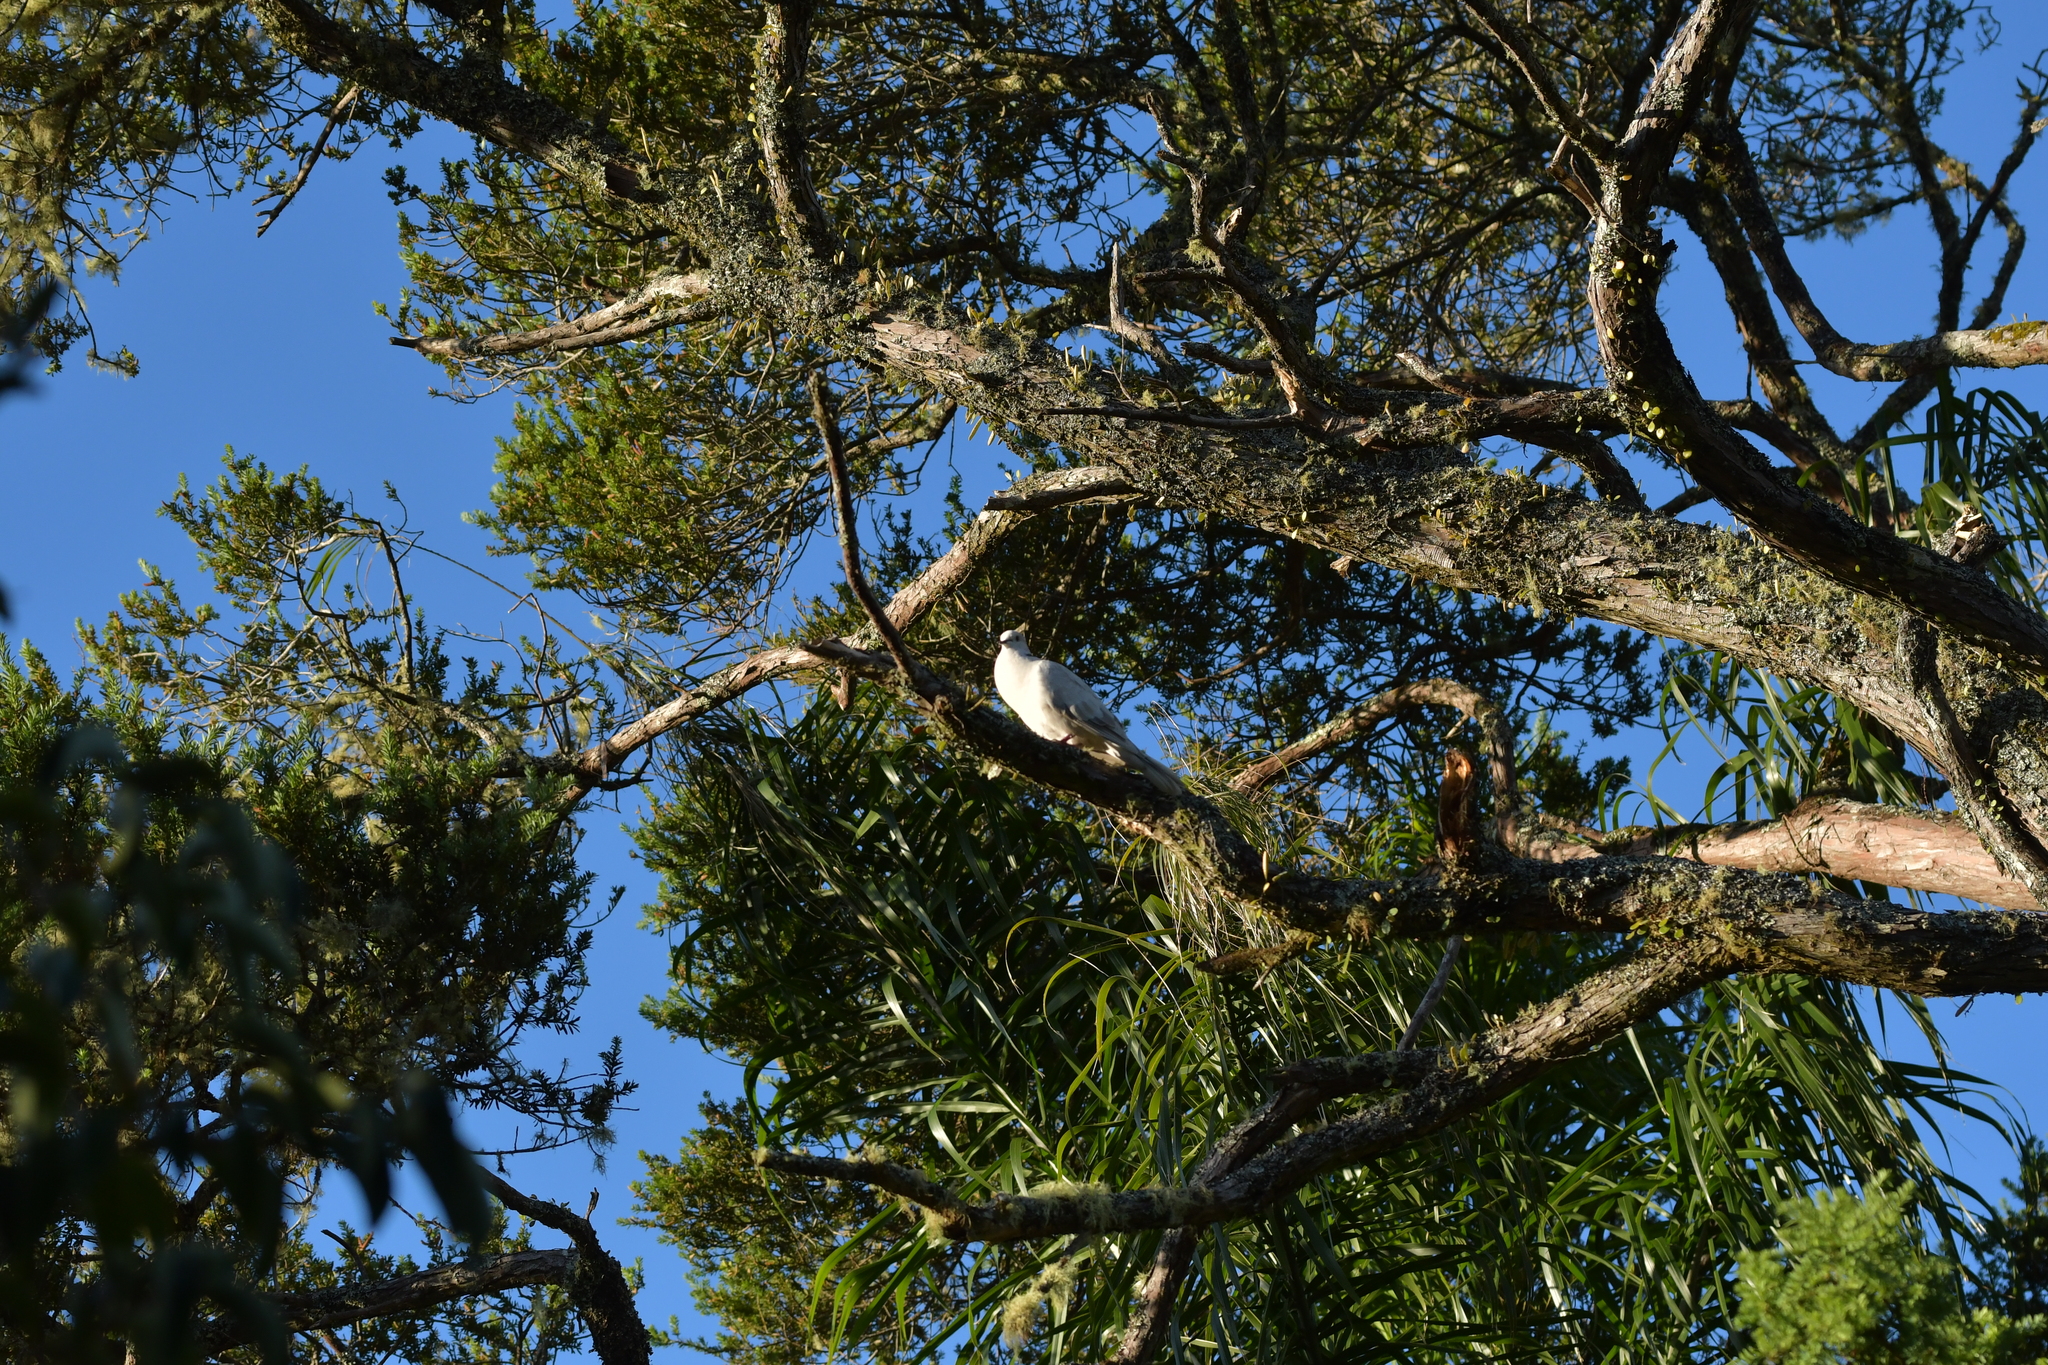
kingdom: Animalia
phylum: Chordata
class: Aves
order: Columbiformes
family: Columbidae
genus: Streptopelia
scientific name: Streptopelia roseogrisea
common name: African collared dove
